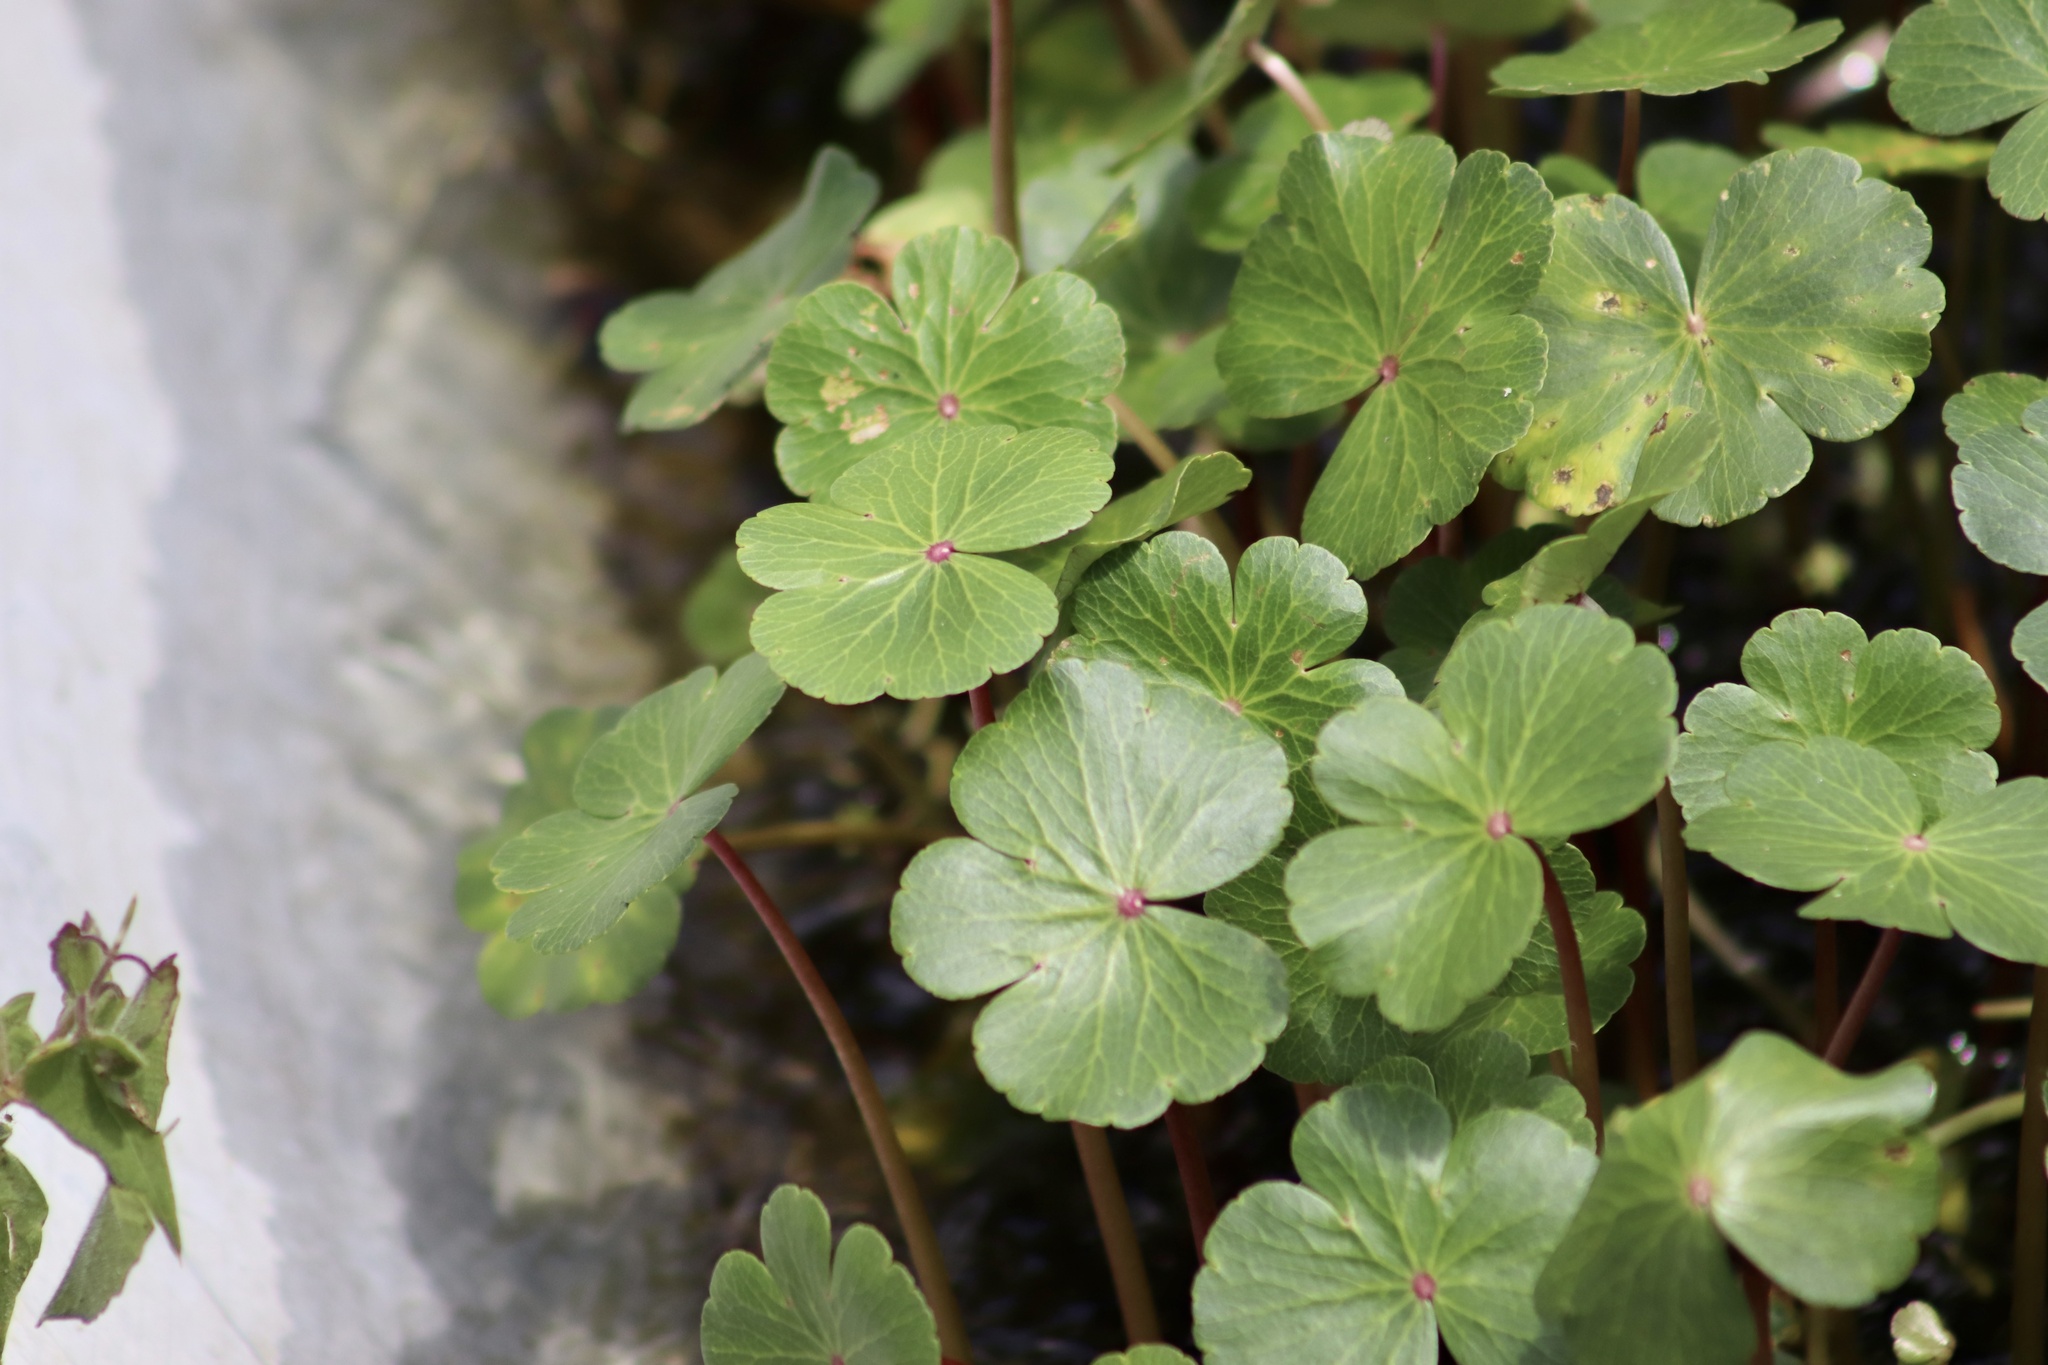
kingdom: Plantae
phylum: Tracheophyta
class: Magnoliopsida
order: Apiales
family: Araliaceae
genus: Hydrocotyle
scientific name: Hydrocotyle ranunculoides
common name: Floating pennywort
